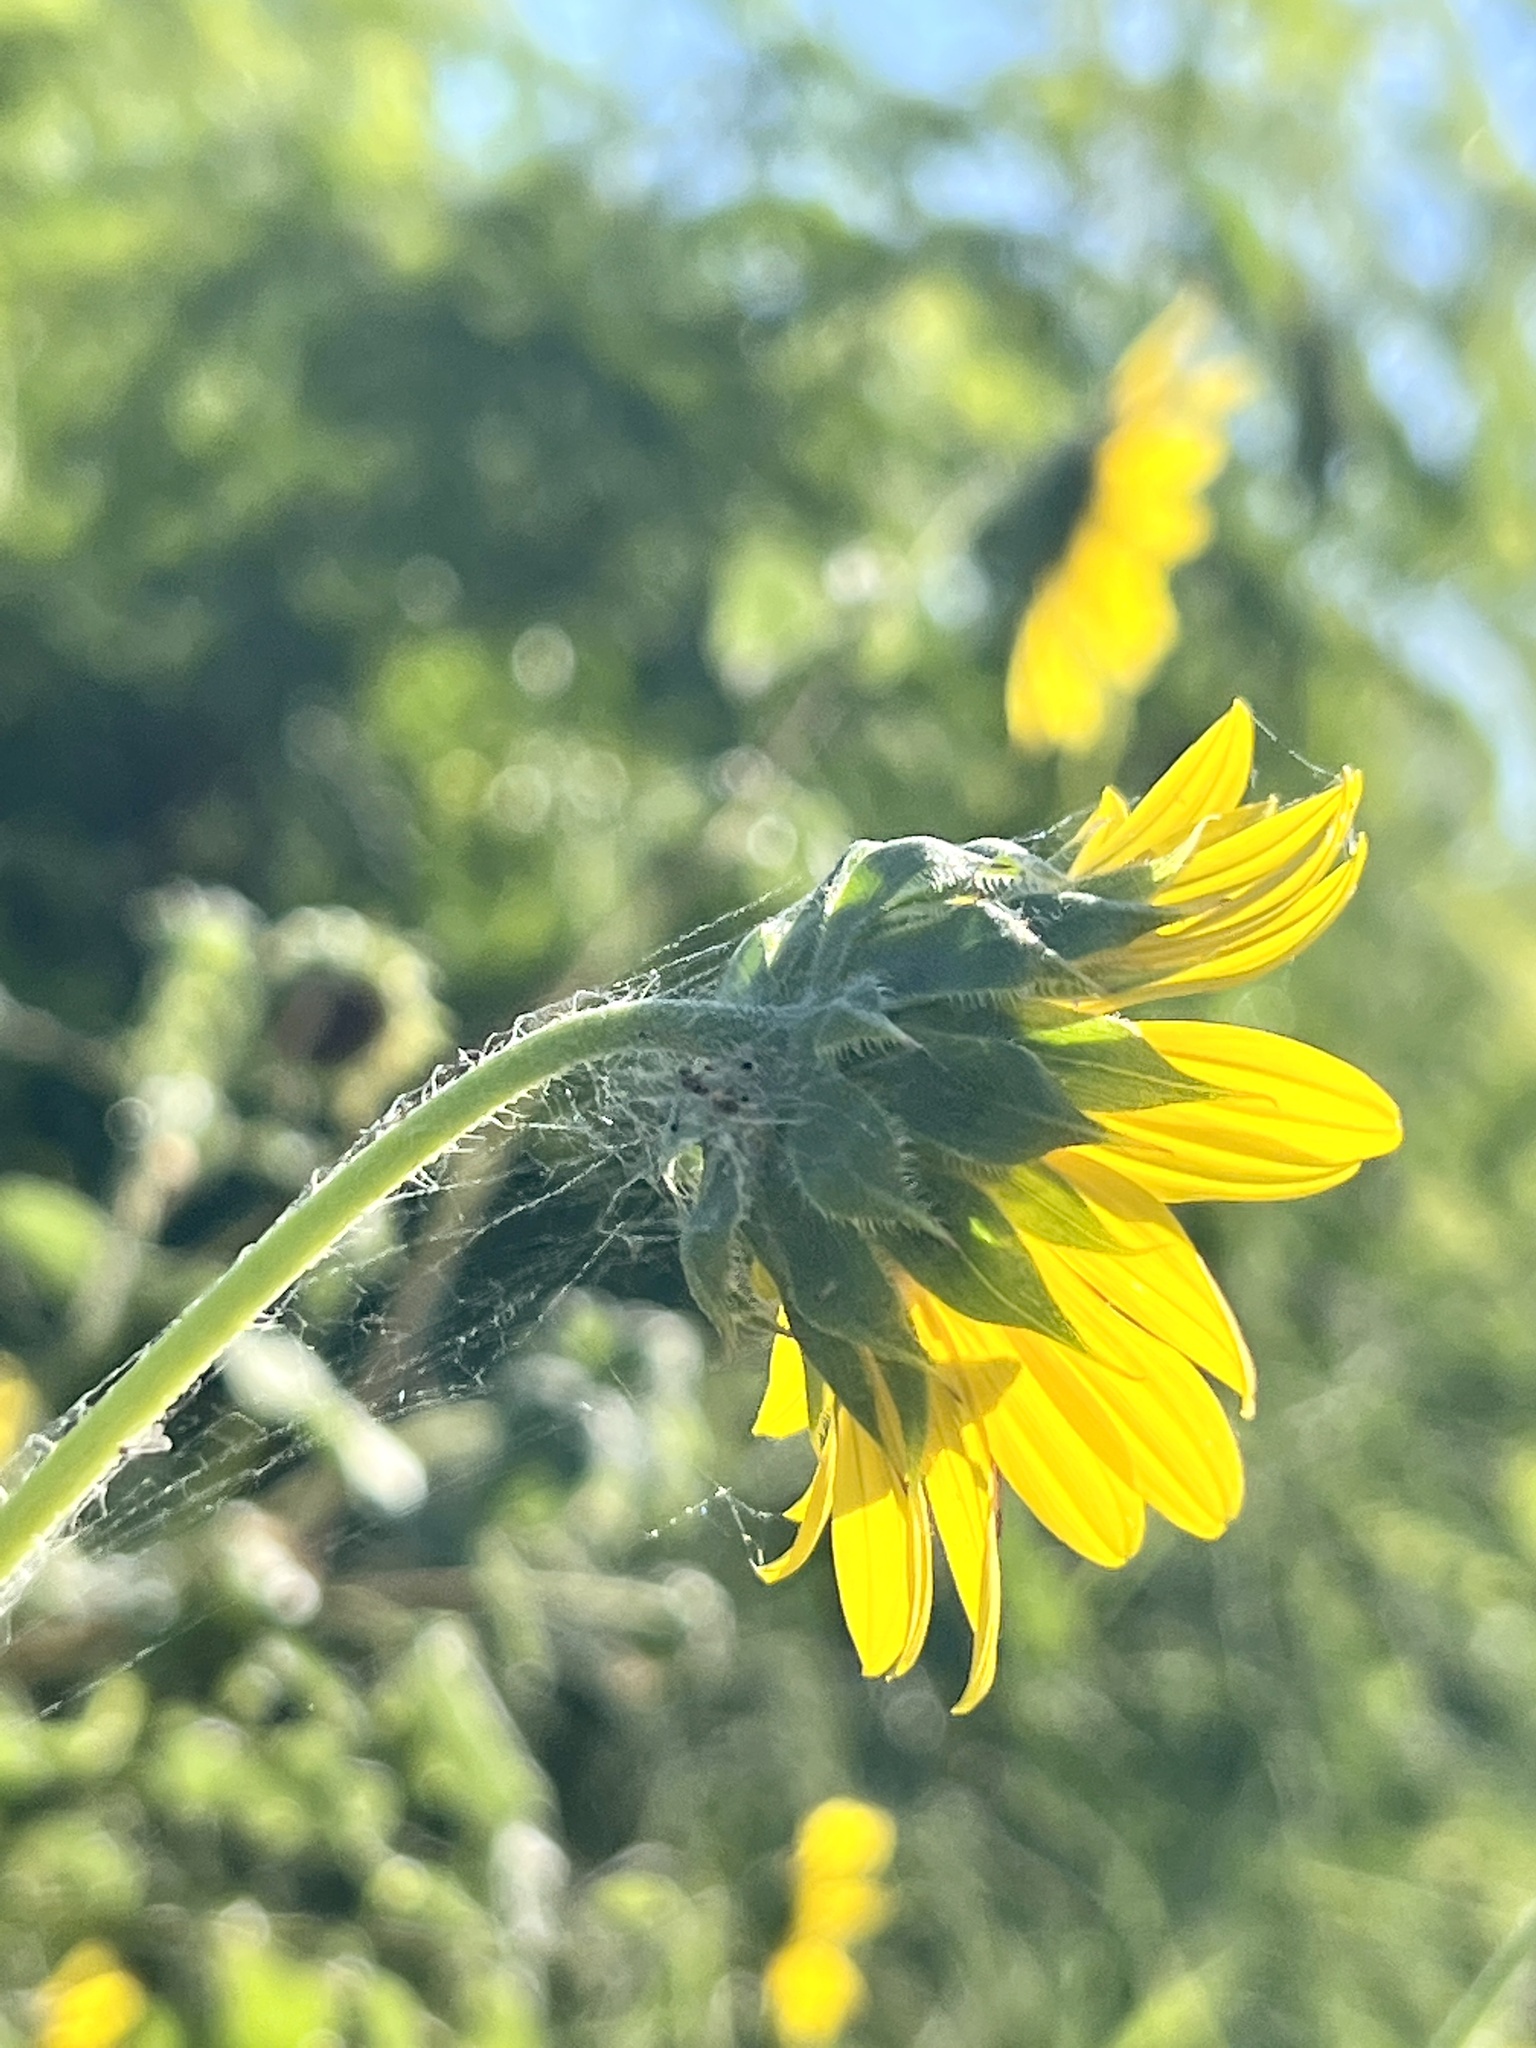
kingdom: Plantae
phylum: Tracheophyta
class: Magnoliopsida
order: Asterales
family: Asteraceae
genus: Helianthus
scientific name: Helianthus annuus
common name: Sunflower
